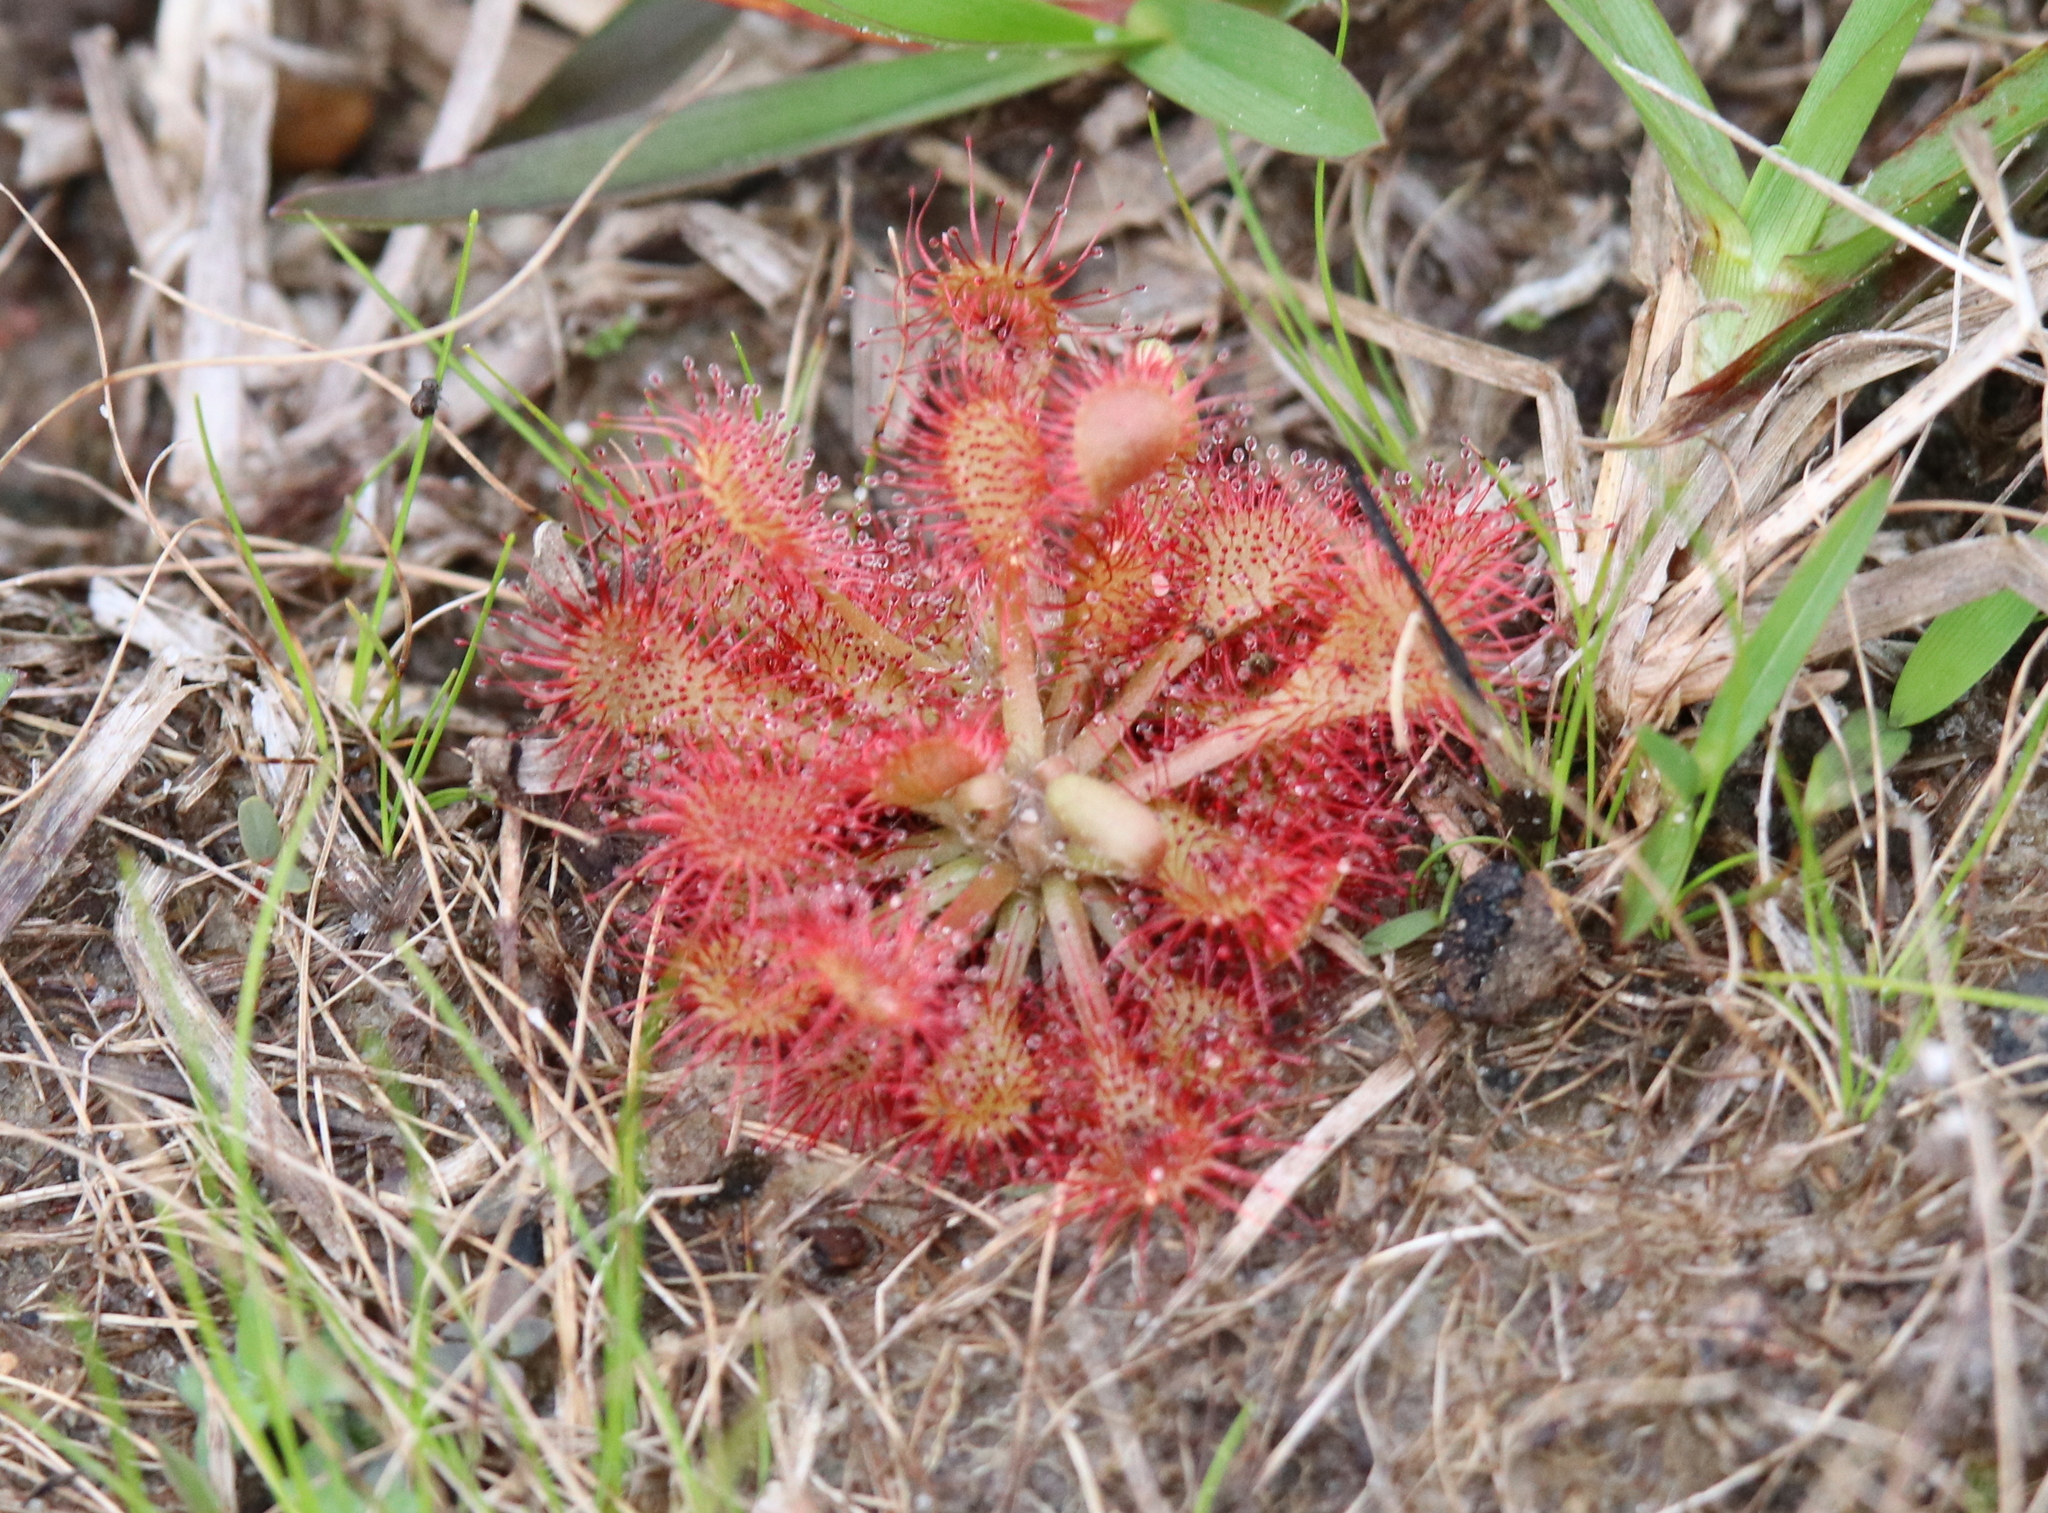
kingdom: Plantae
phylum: Tracheophyta
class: Magnoliopsida
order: Caryophyllales
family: Droseraceae
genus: Drosera
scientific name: Drosera capillaris
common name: Pink sundew
